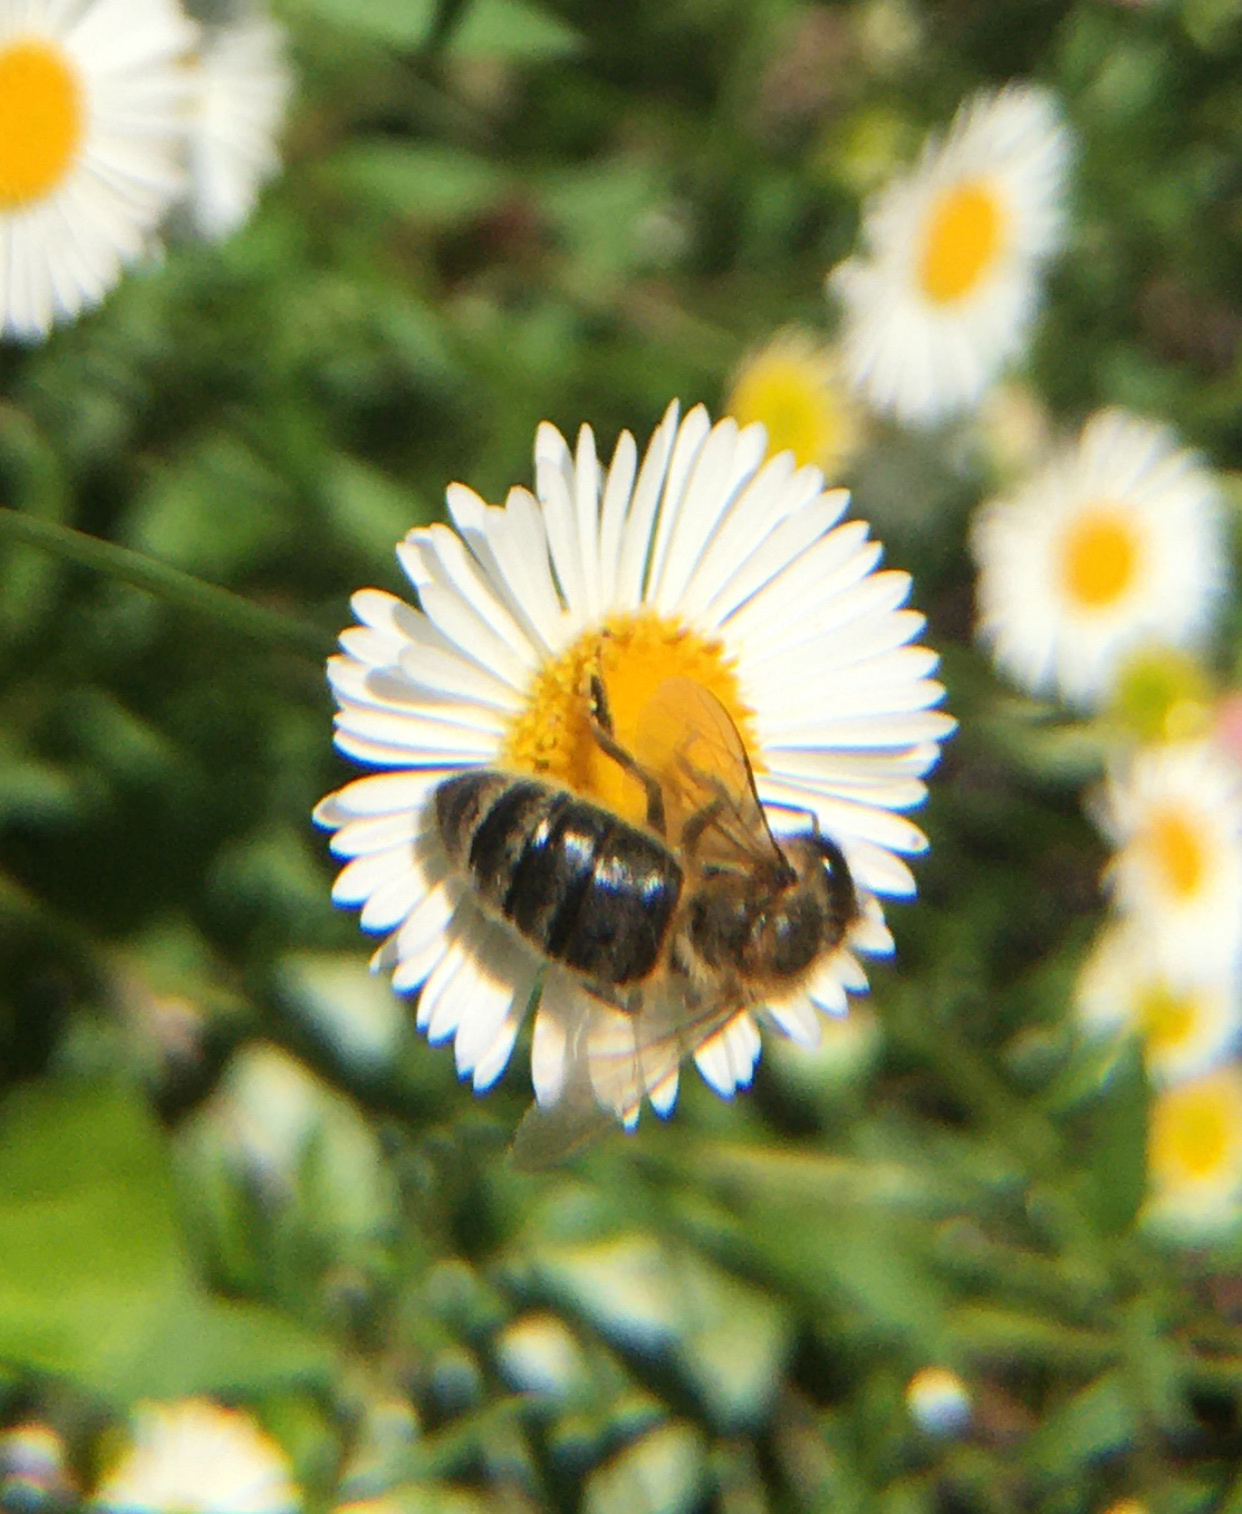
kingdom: Animalia
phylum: Arthropoda
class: Insecta
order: Hymenoptera
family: Apidae
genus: Apis
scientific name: Apis mellifera
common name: Honey bee
